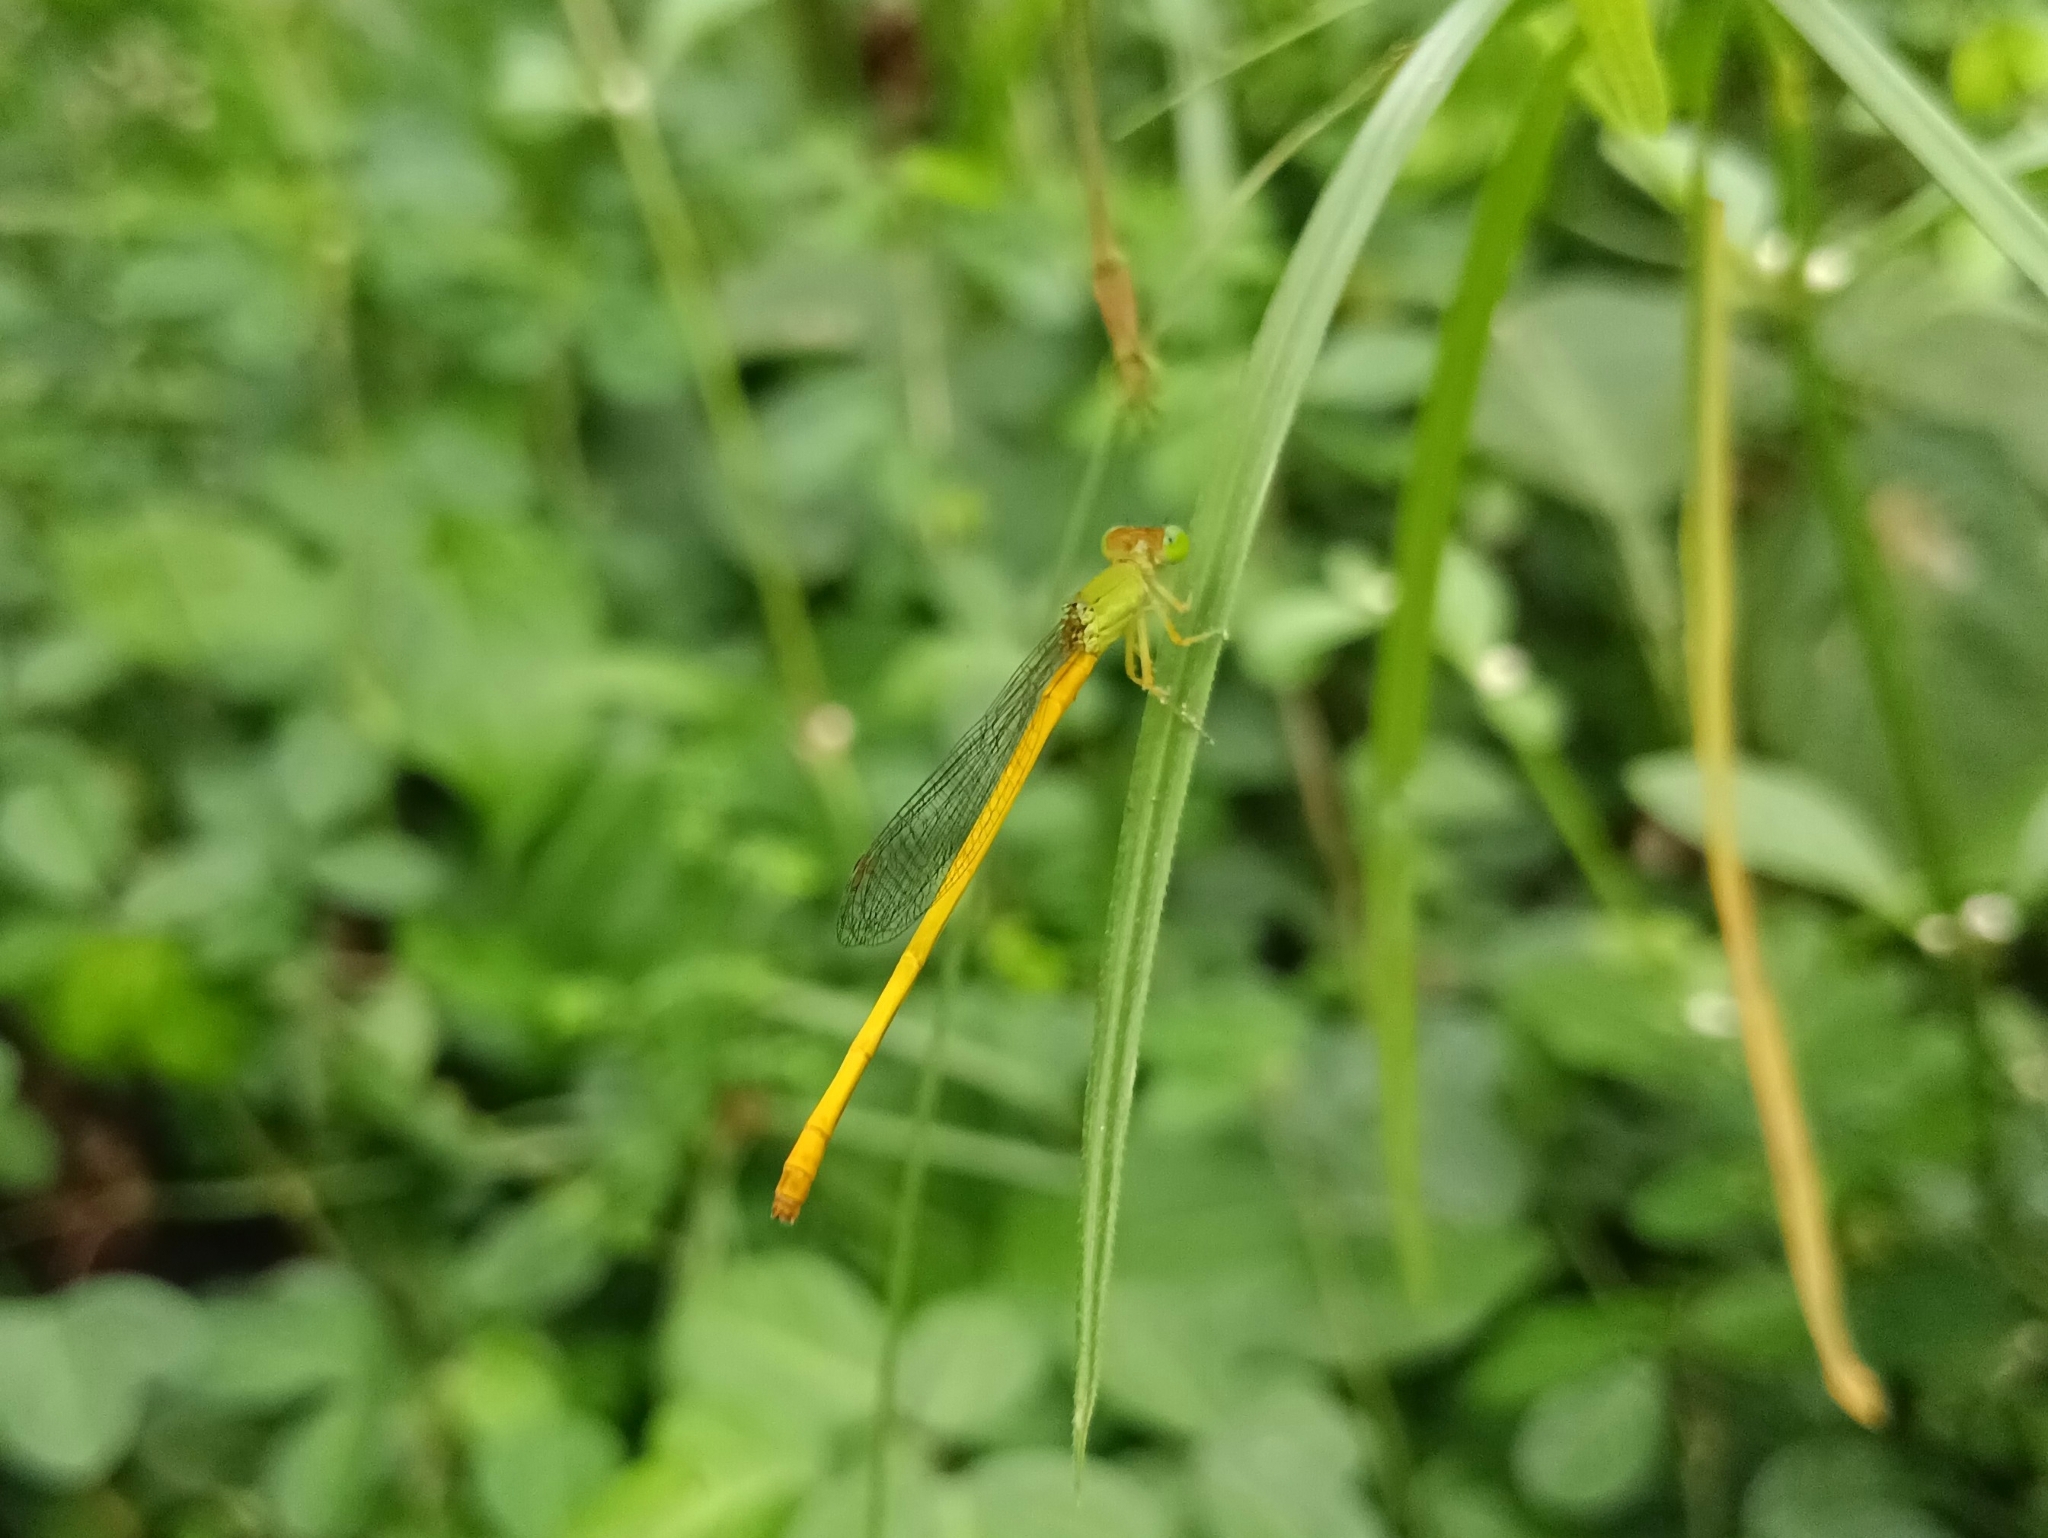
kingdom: Animalia
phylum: Arthropoda
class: Insecta
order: Odonata
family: Coenagrionidae
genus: Ceriagrion
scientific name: Ceriagrion coromandelianum
